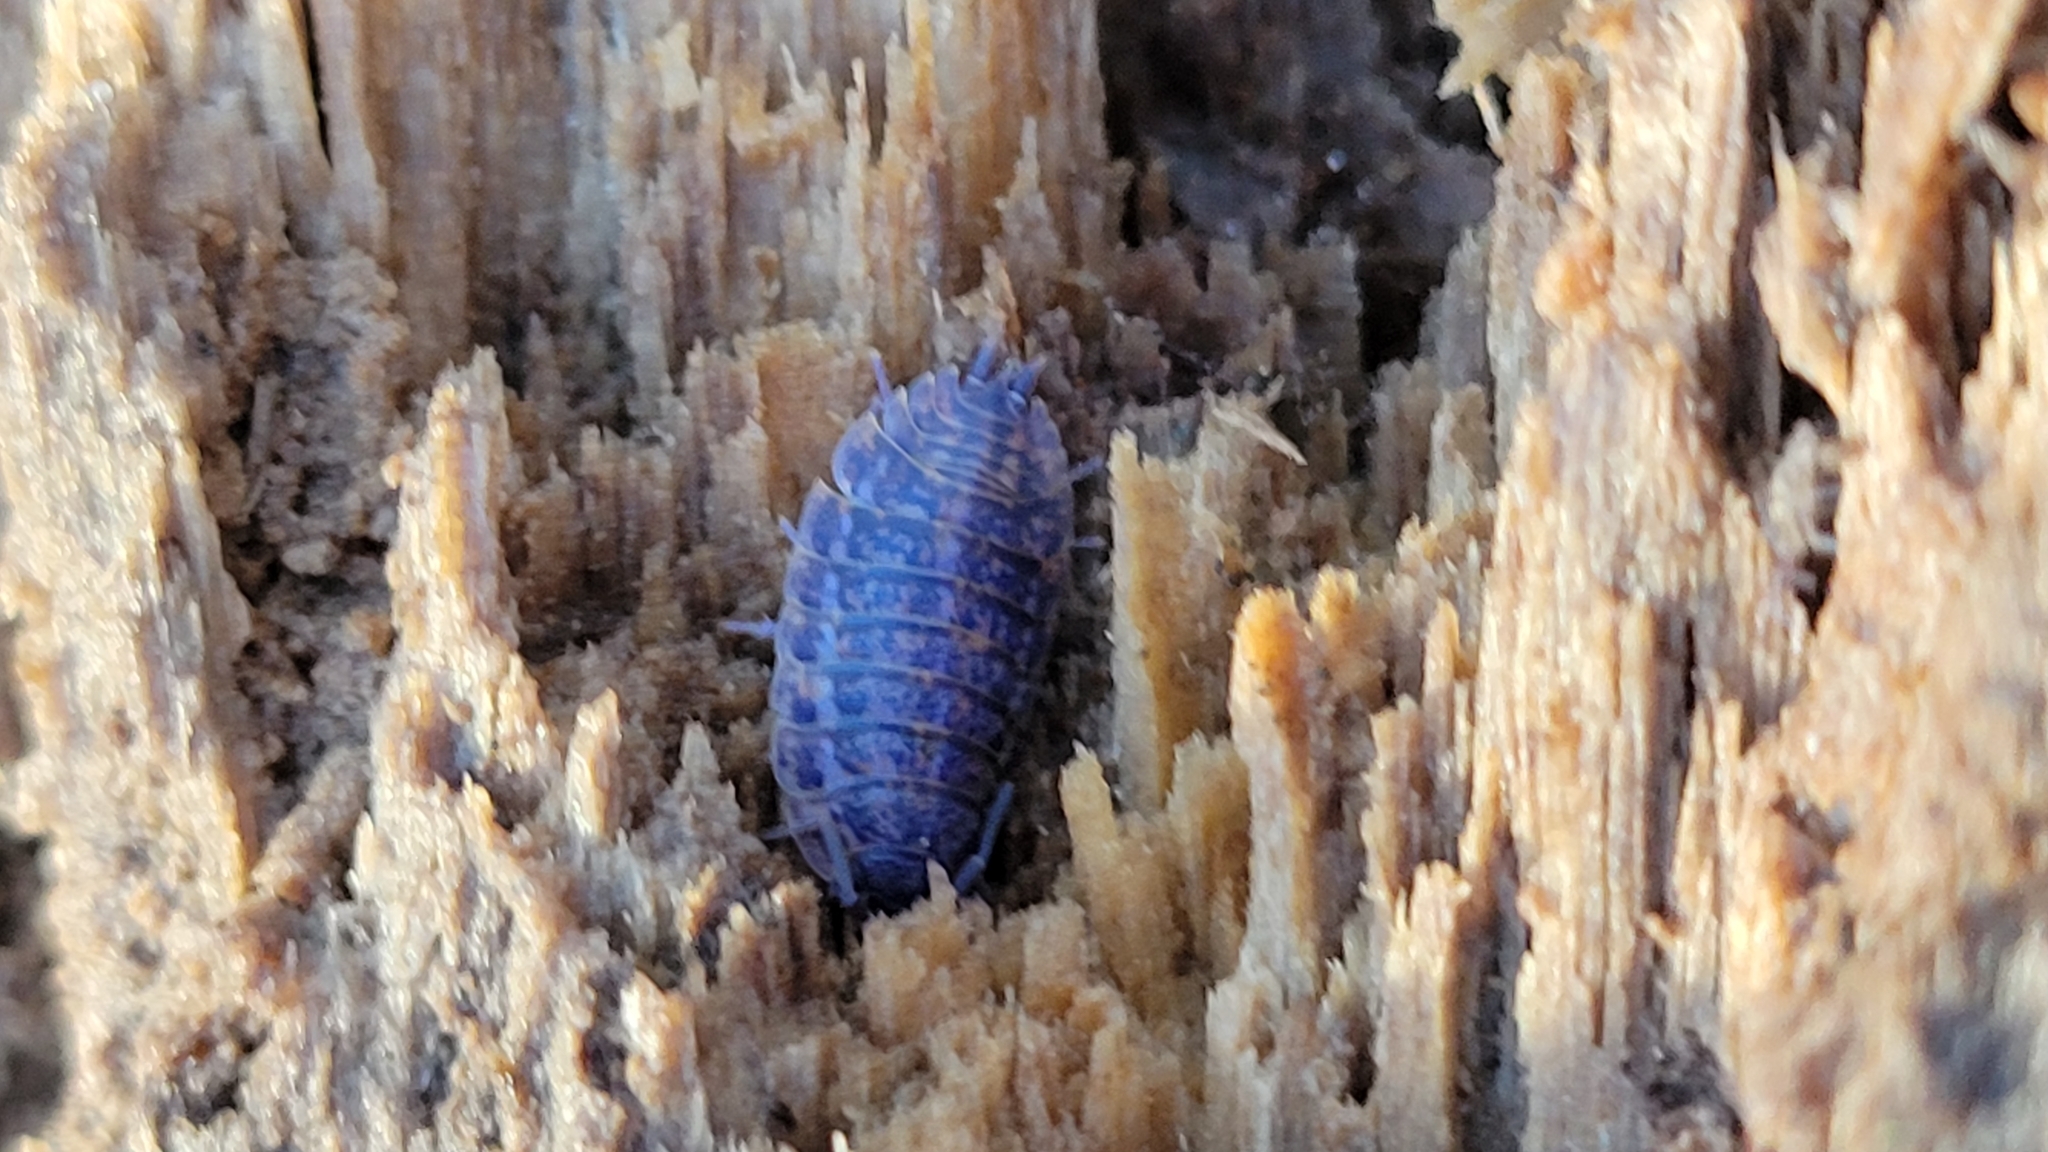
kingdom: Viruses
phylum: Nucleocytoviricota
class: Megaviricetes
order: Pimascovirales
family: Iridoviridae
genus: Iridovirus
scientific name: Iridovirus Invertebrate iridescent virus 31
